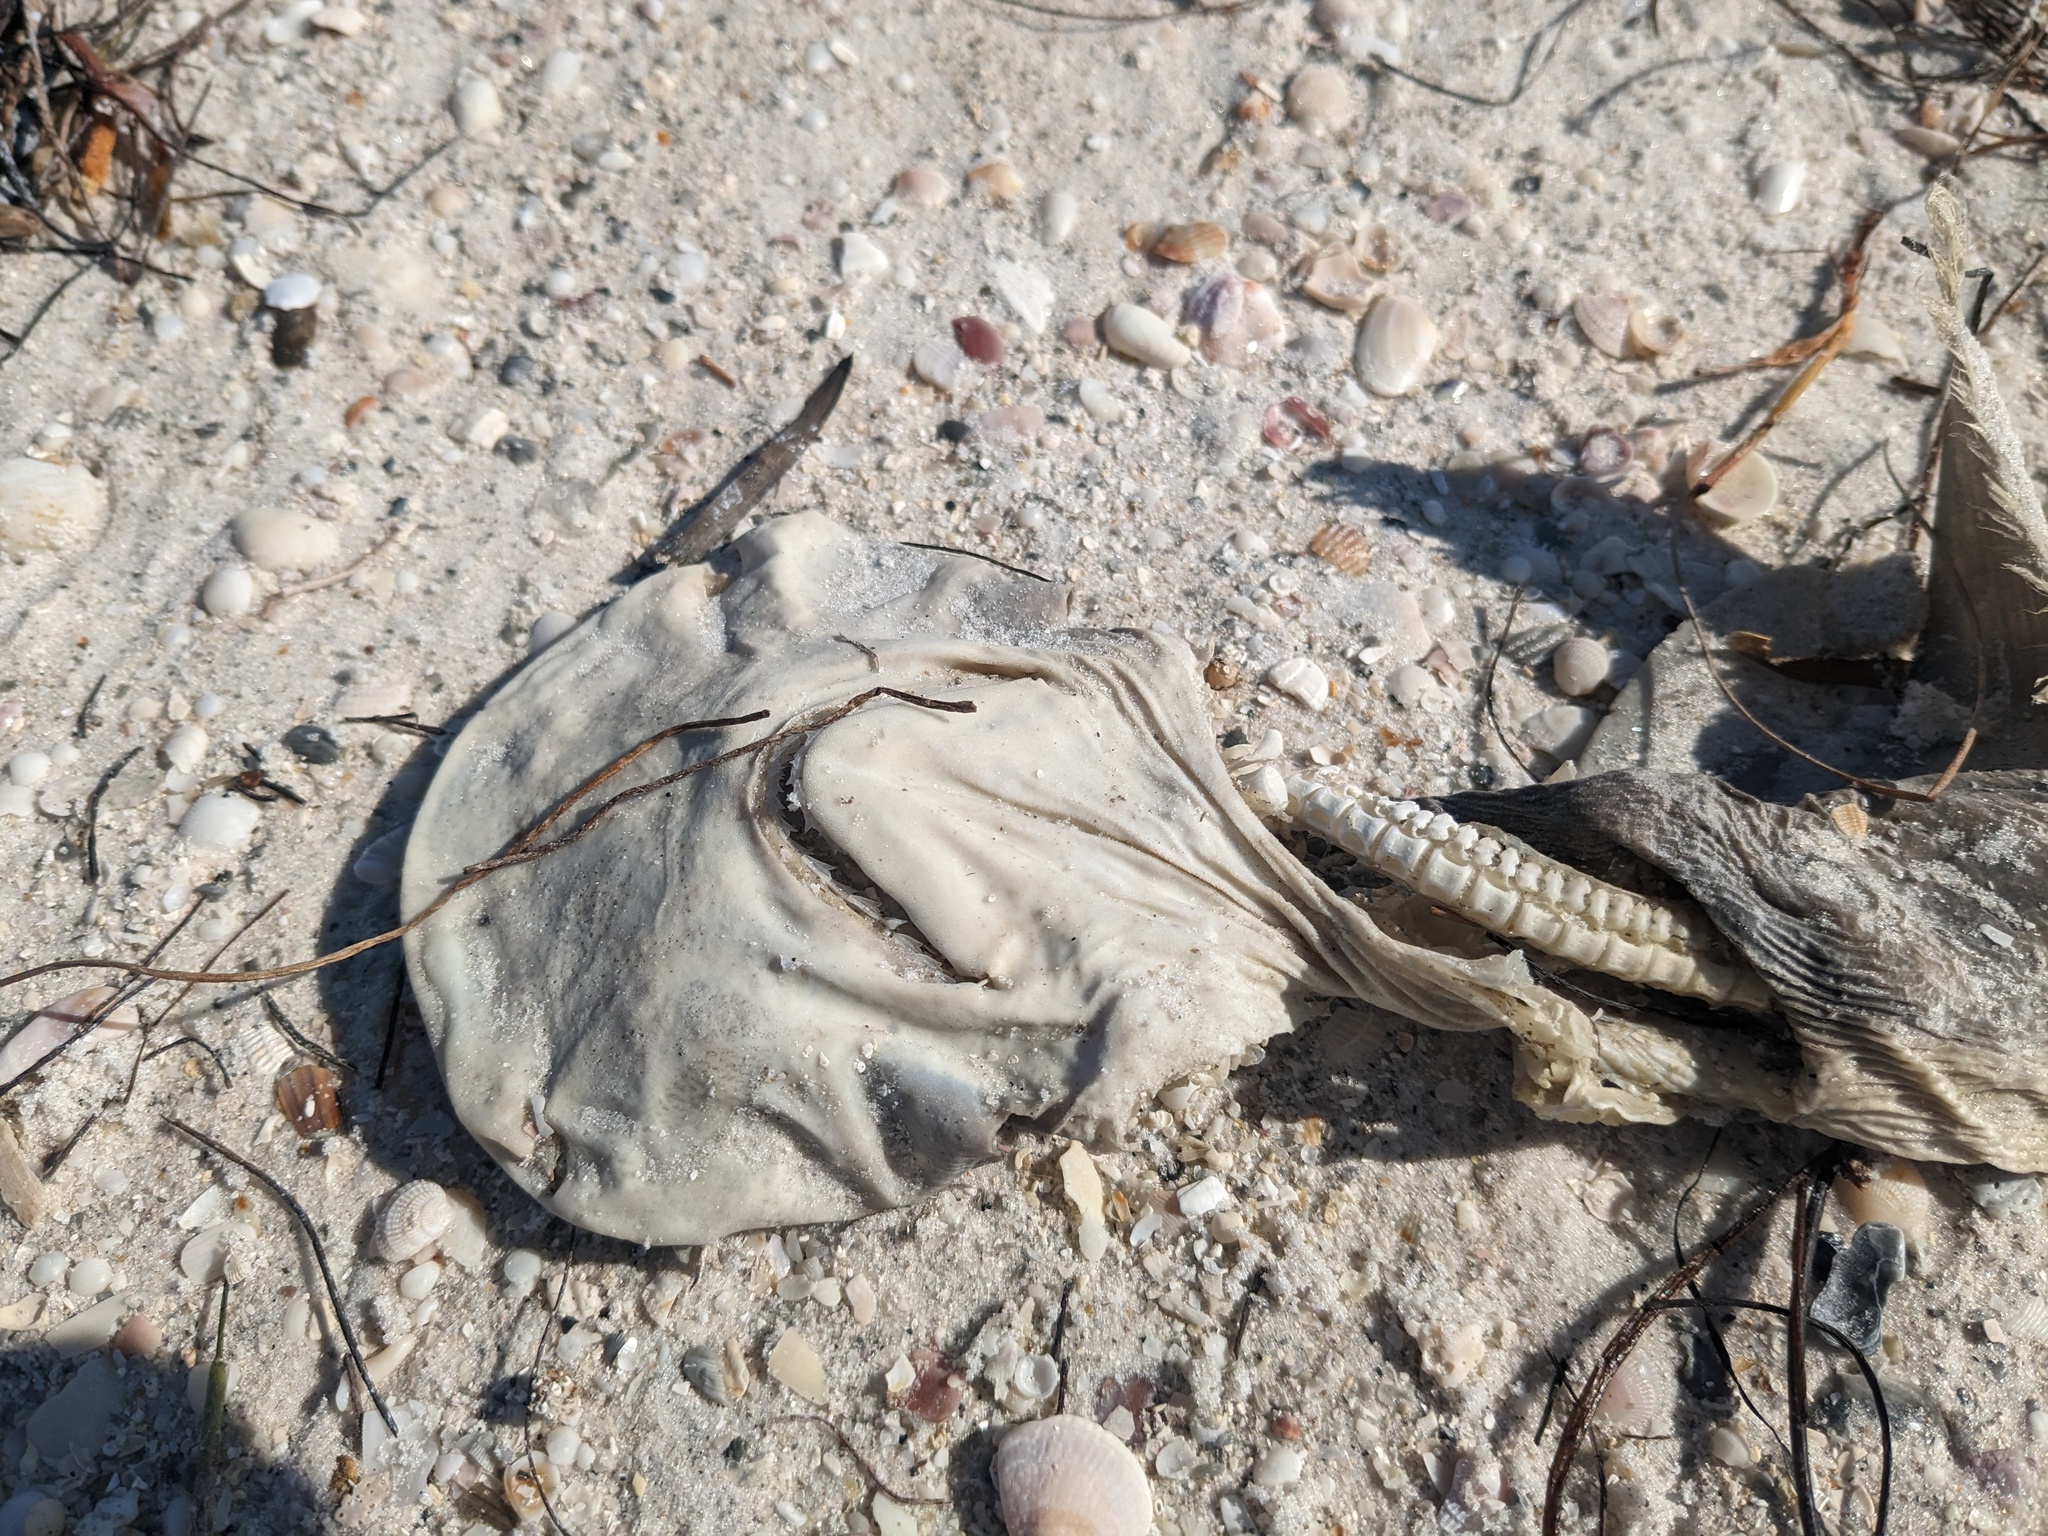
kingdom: Animalia
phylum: Chordata
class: Elasmobranchii
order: Carcharhiniformes
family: Sphyrnidae
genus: Sphyrna
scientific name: Sphyrna tiburo
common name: Bonnethead
